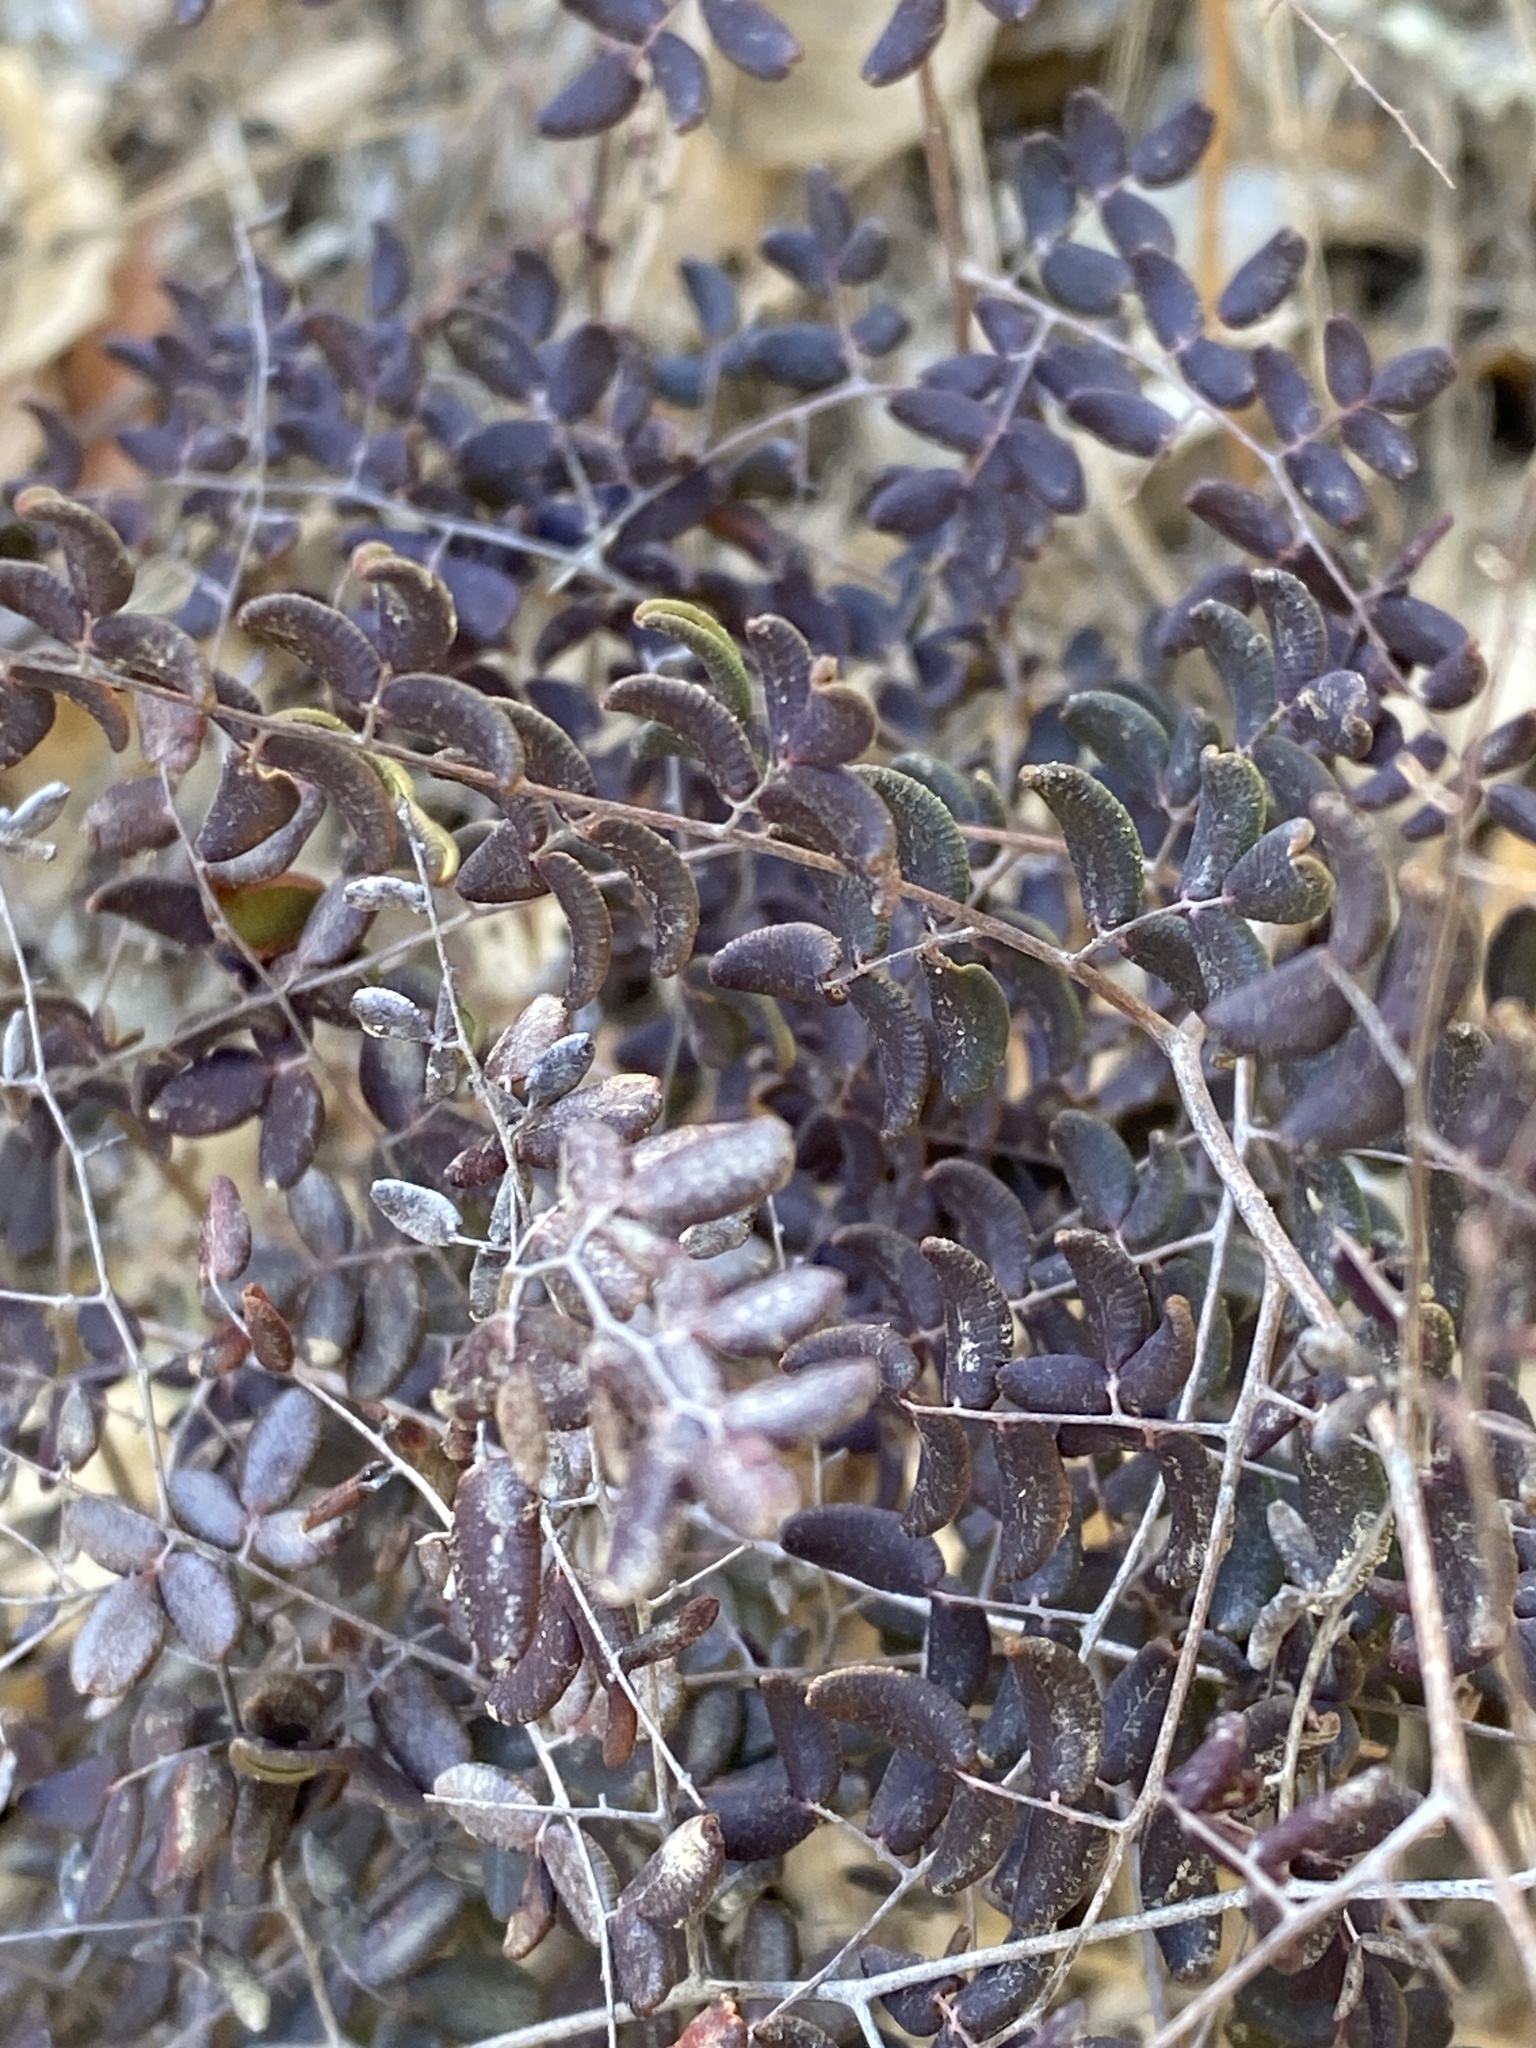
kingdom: Plantae
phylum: Tracheophyta
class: Polypodiopsida
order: Polypodiales
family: Pteridaceae
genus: Pellaea
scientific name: Pellaea andromedifolia
